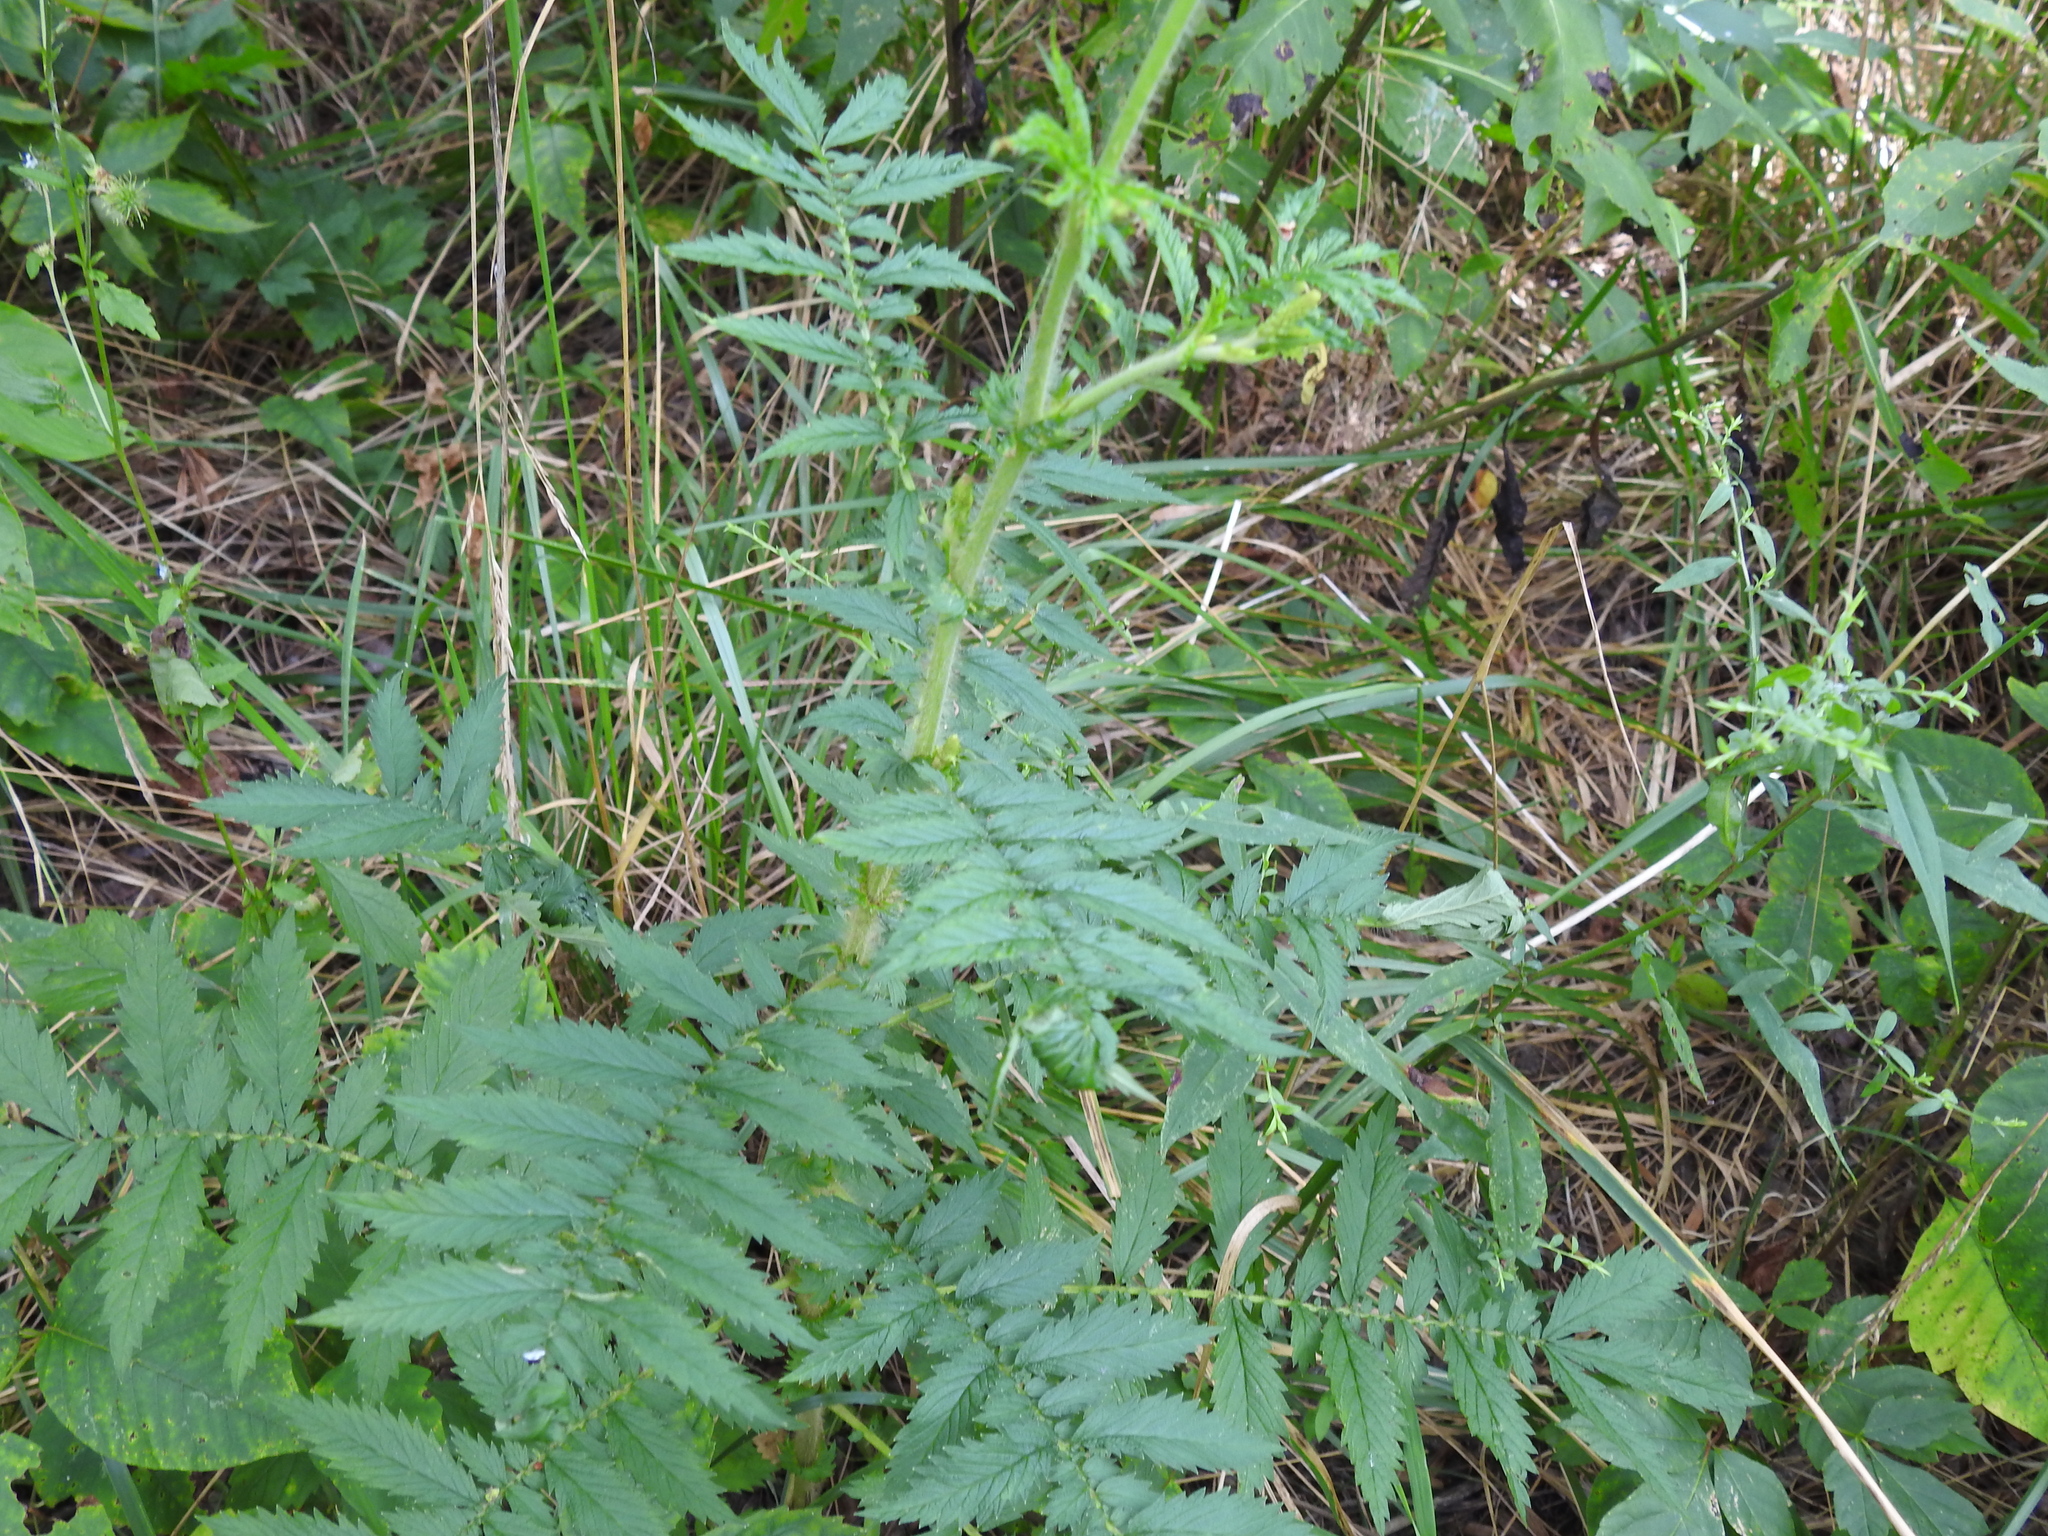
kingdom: Plantae
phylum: Tracheophyta
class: Magnoliopsida
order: Rosales
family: Rosaceae
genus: Agrimonia
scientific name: Agrimonia parviflora
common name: Harvest-lice
